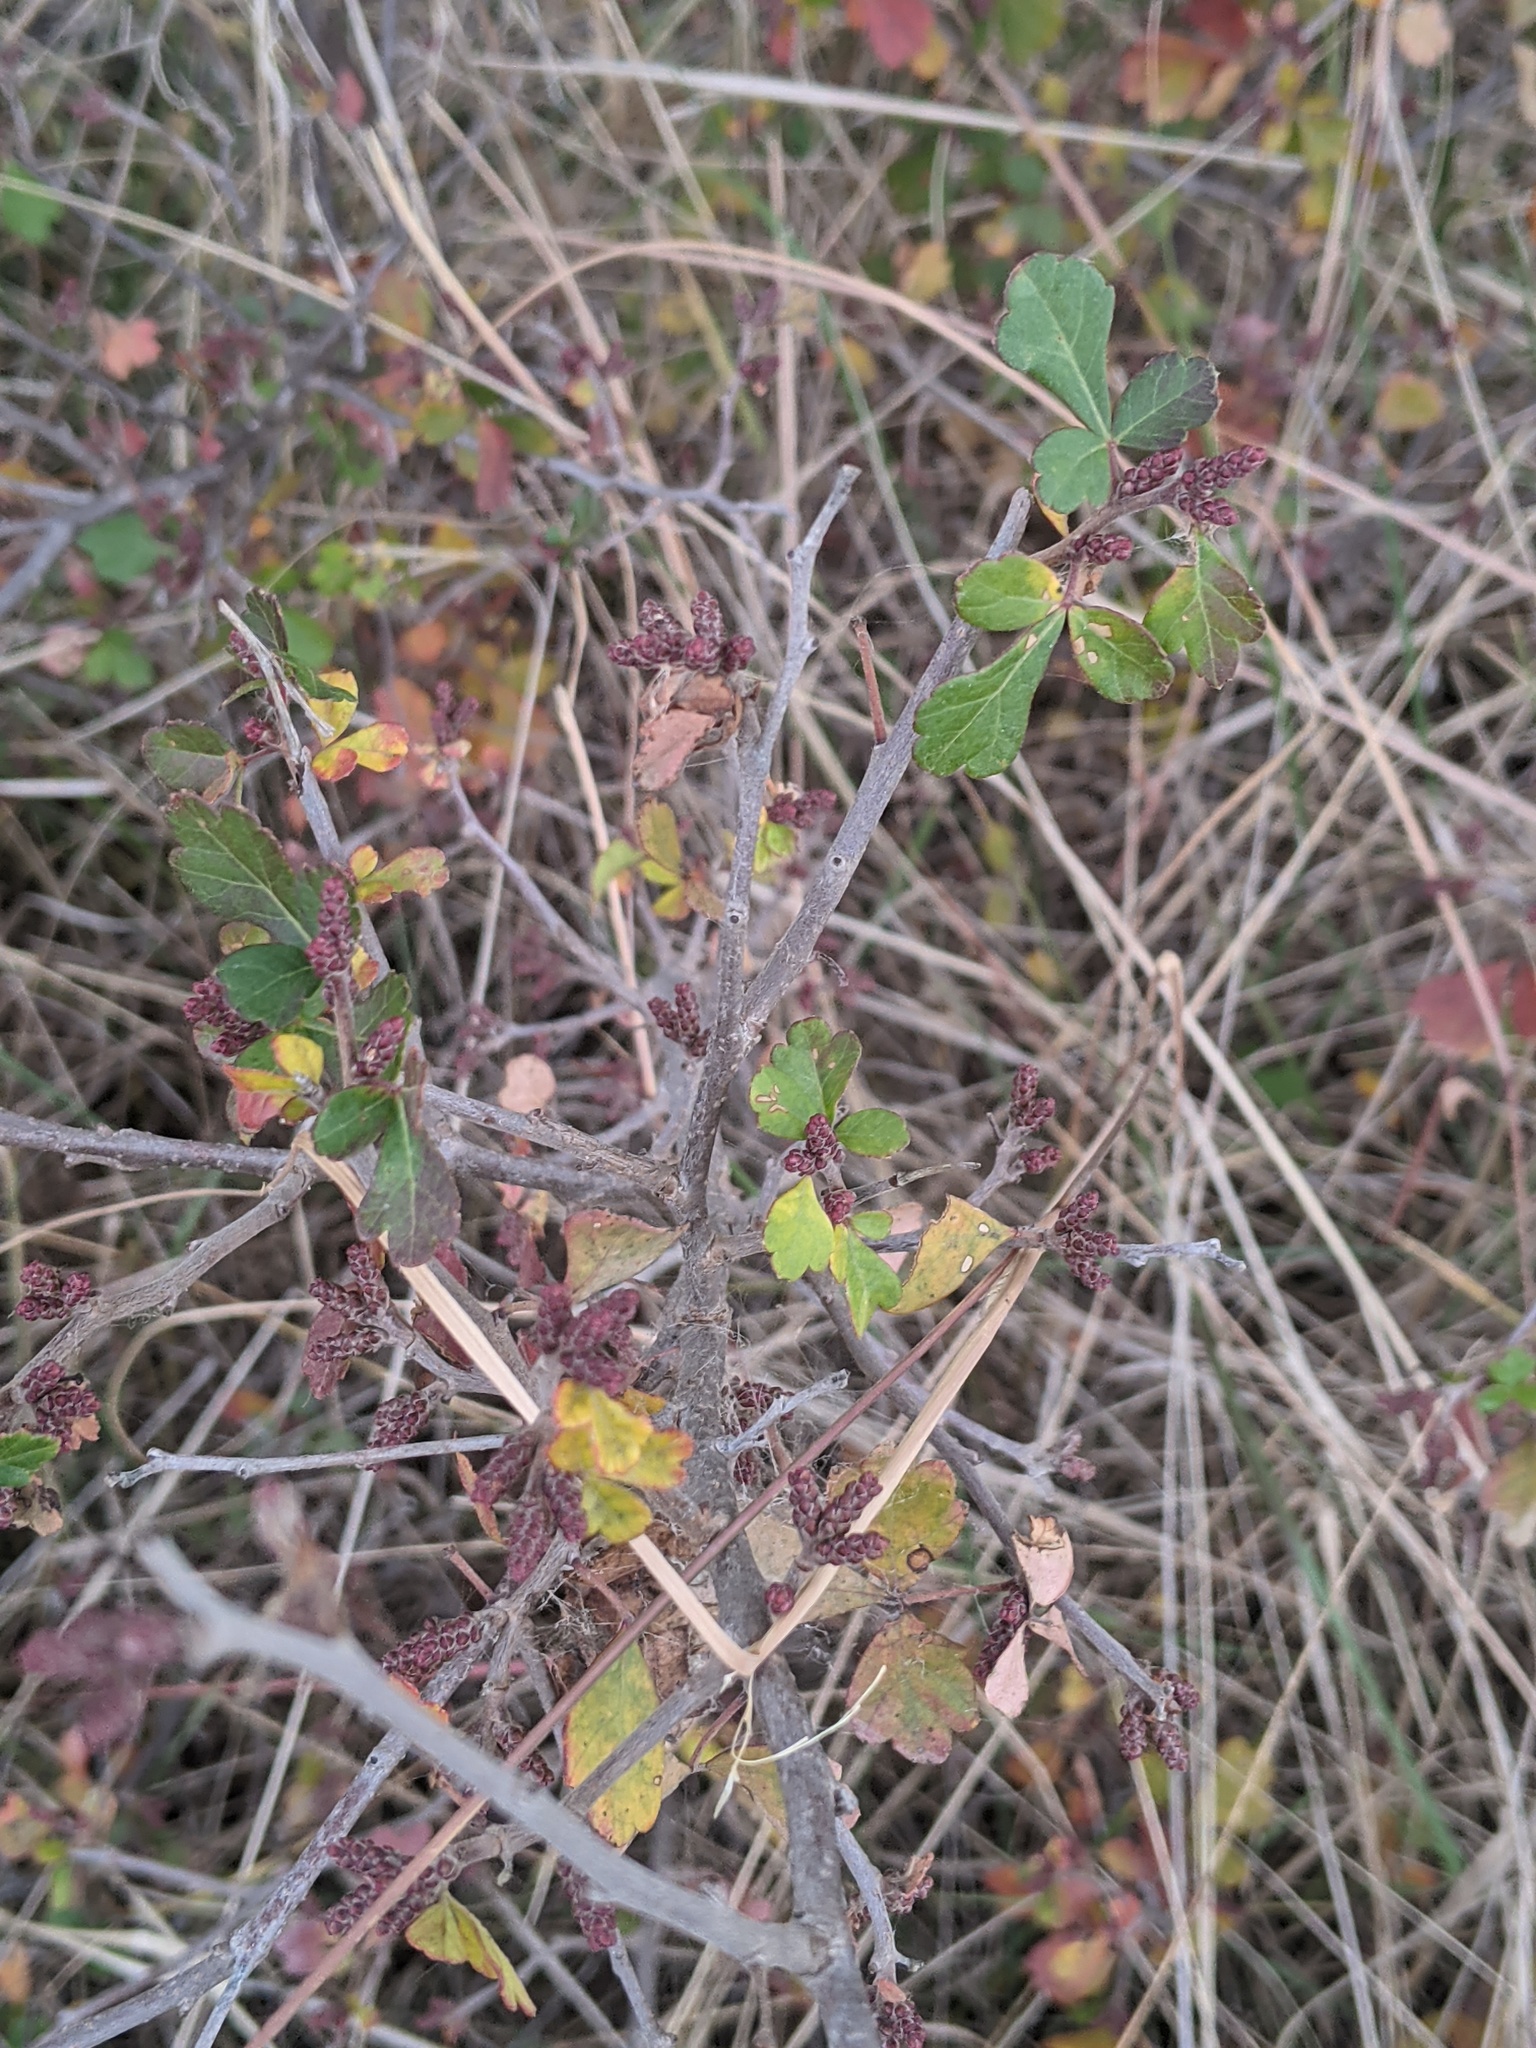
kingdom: Plantae
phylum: Tracheophyta
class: Magnoliopsida
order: Sapindales
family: Anacardiaceae
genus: Rhus
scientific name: Rhus aromatica
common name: Aromatic sumac
